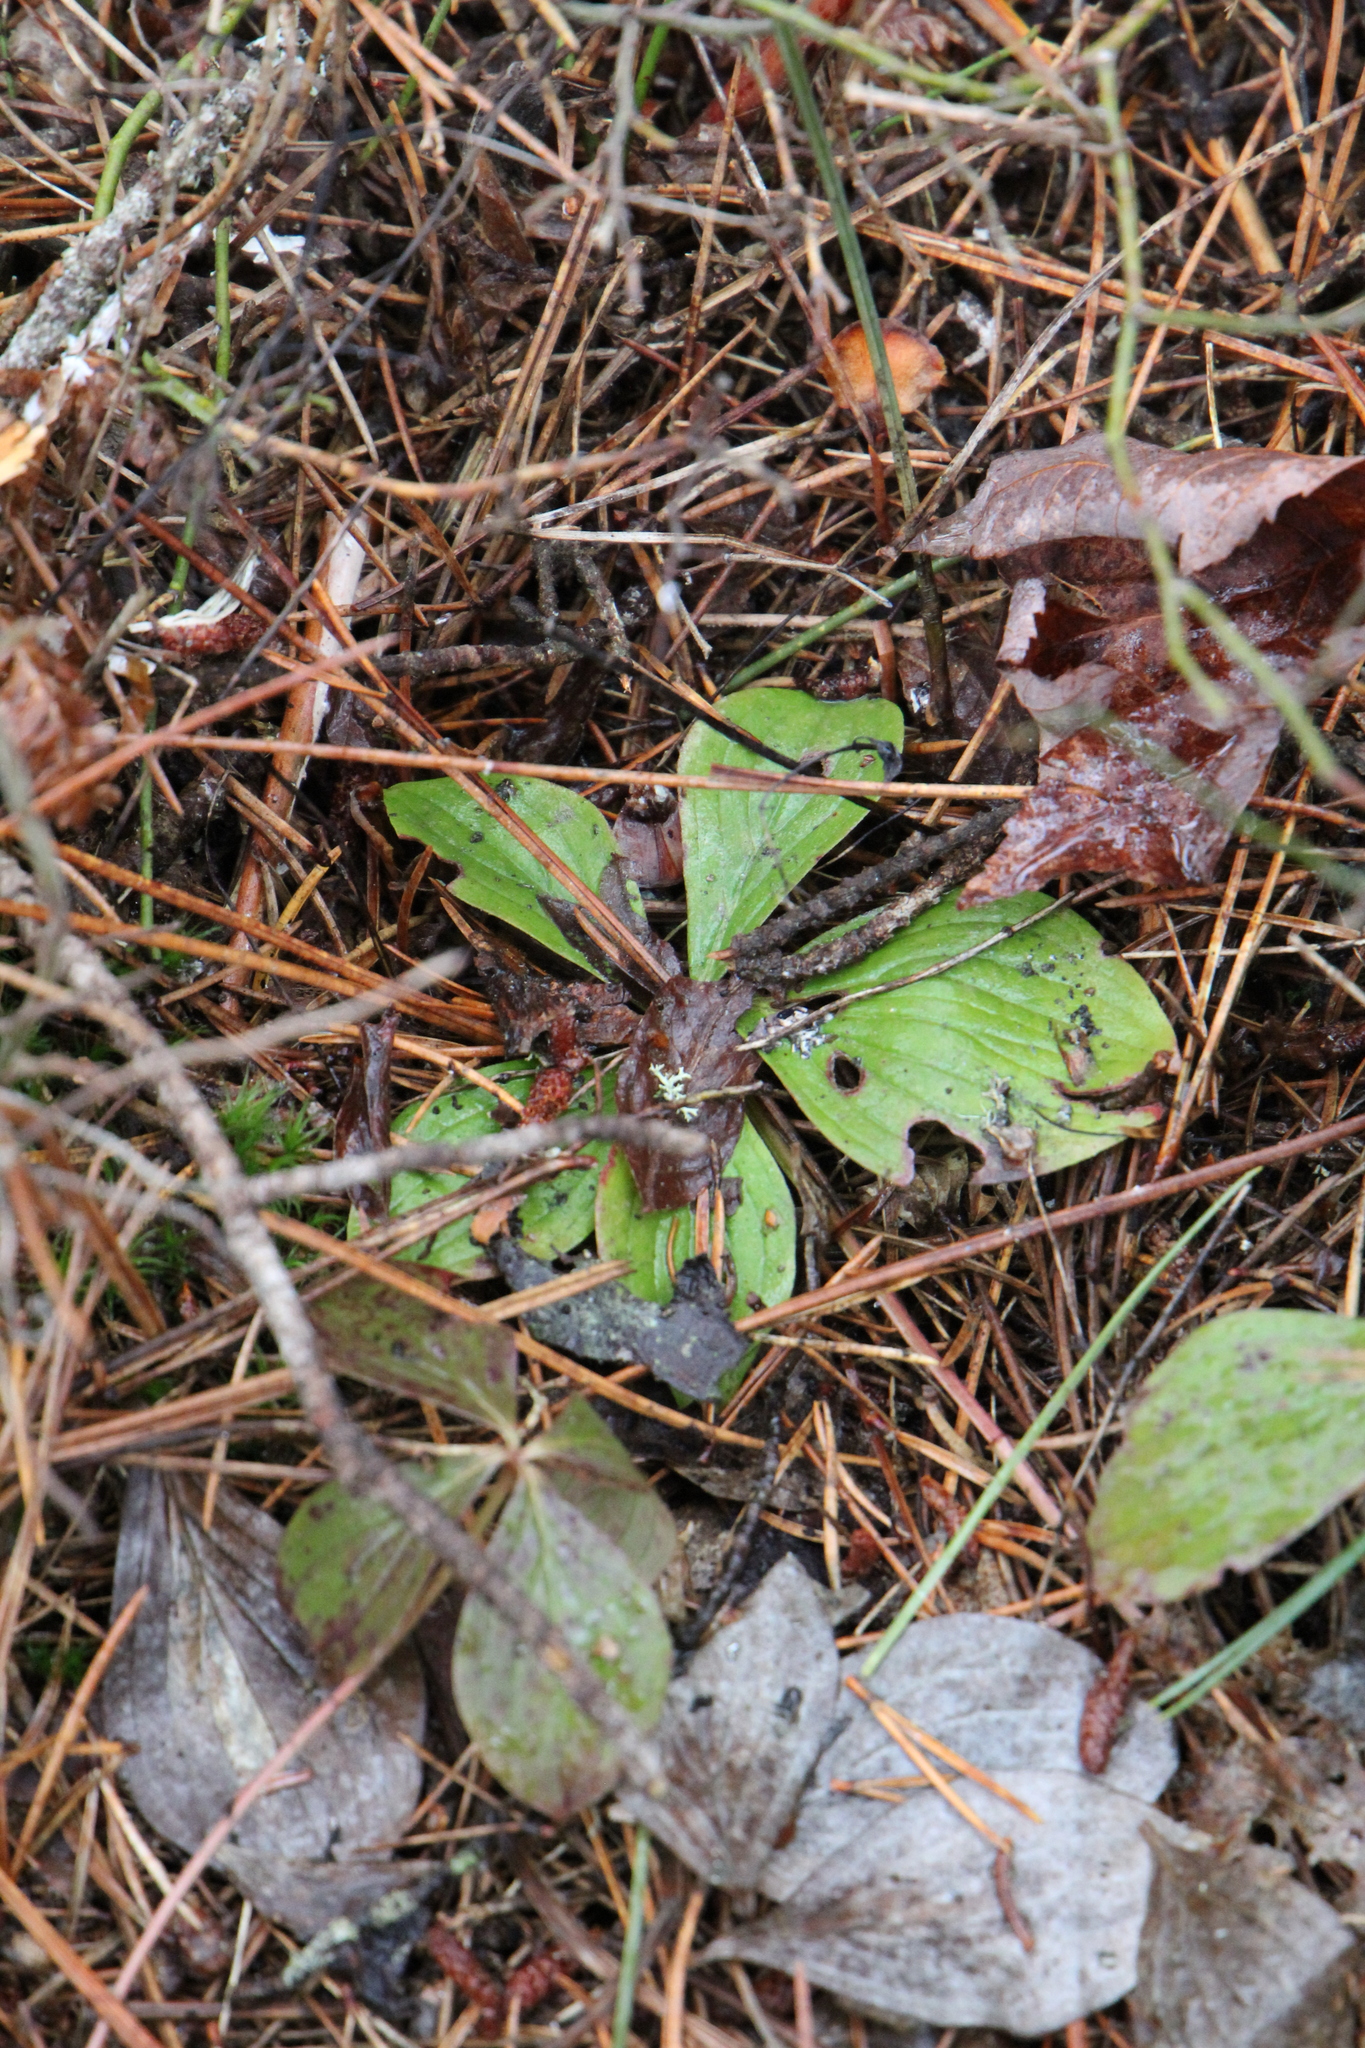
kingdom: Plantae
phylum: Tracheophyta
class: Magnoliopsida
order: Cornales
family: Cornaceae
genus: Cornus
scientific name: Cornus canadensis
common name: Creeping dogwood
